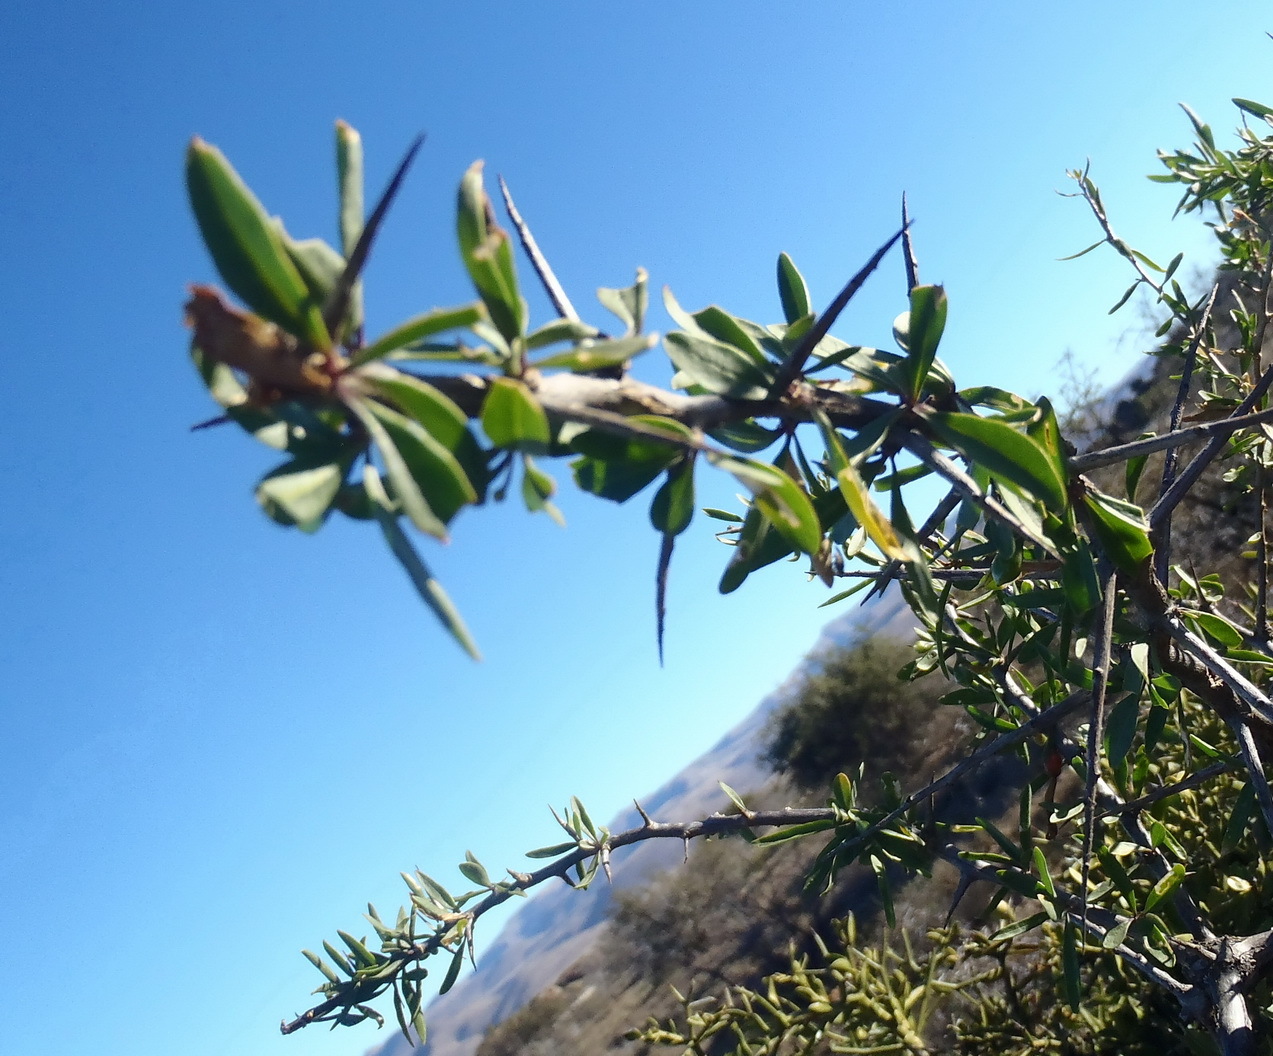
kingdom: Plantae
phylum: Tracheophyta
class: Magnoliopsida
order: Solanales
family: Solanaceae
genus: Lycium
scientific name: Lycium oxycarpum
